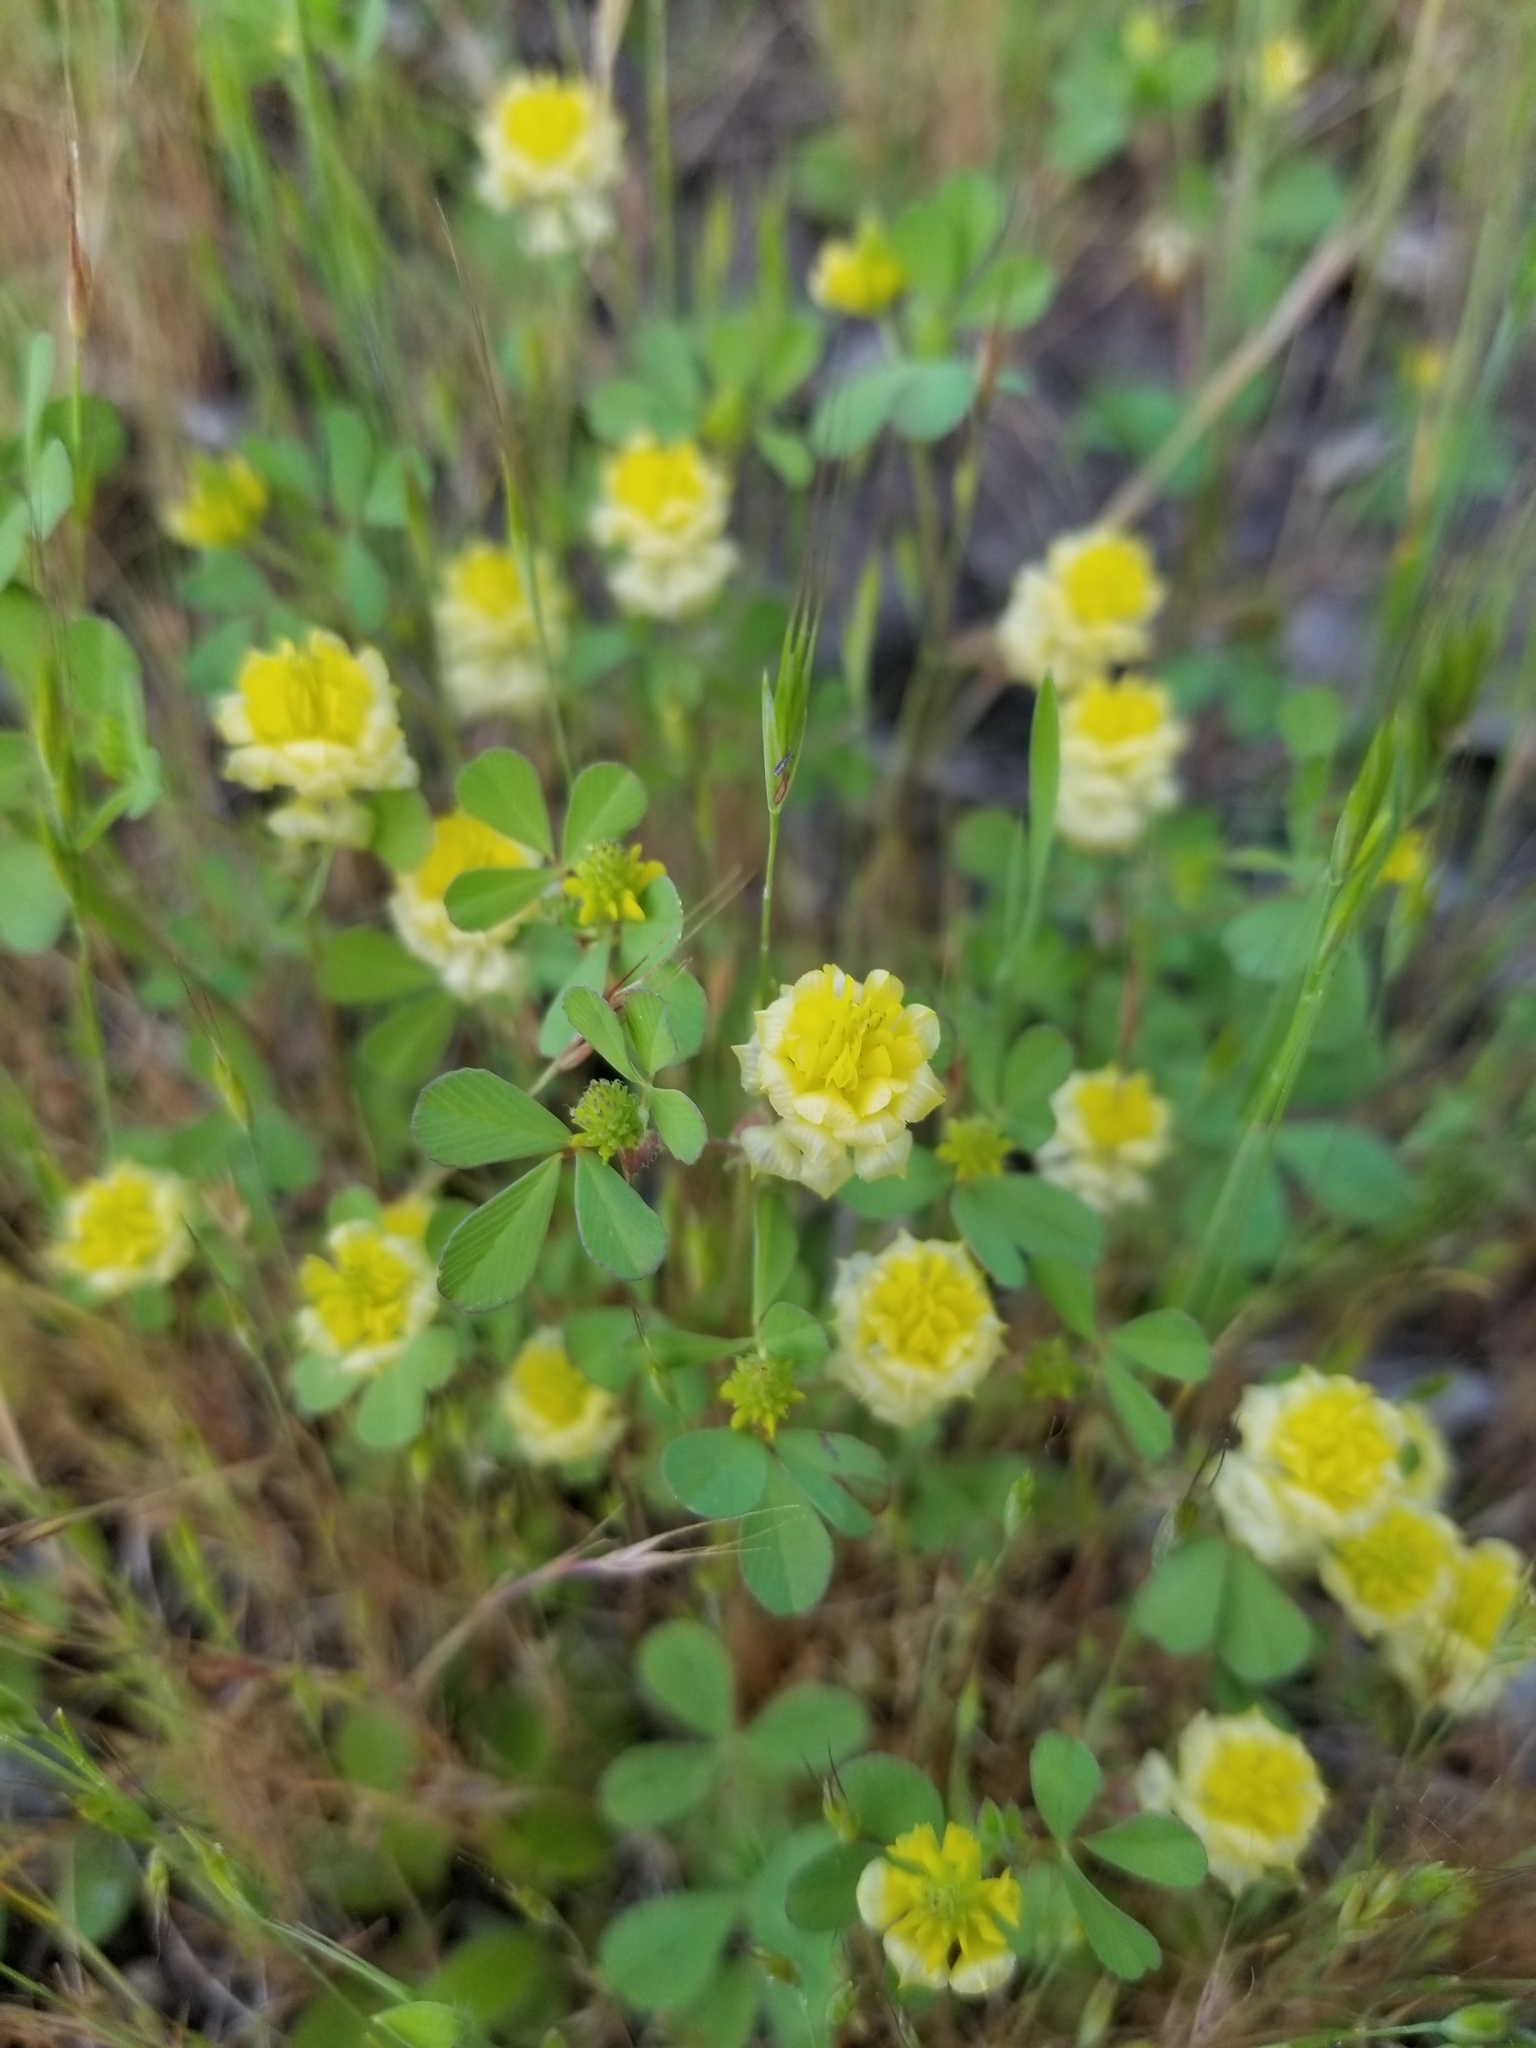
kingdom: Plantae
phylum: Tracheophyta
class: Magnoliopsida
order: Fabales
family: Fabaceae
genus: Trifolium
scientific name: Trifolium campestre
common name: Field clover
